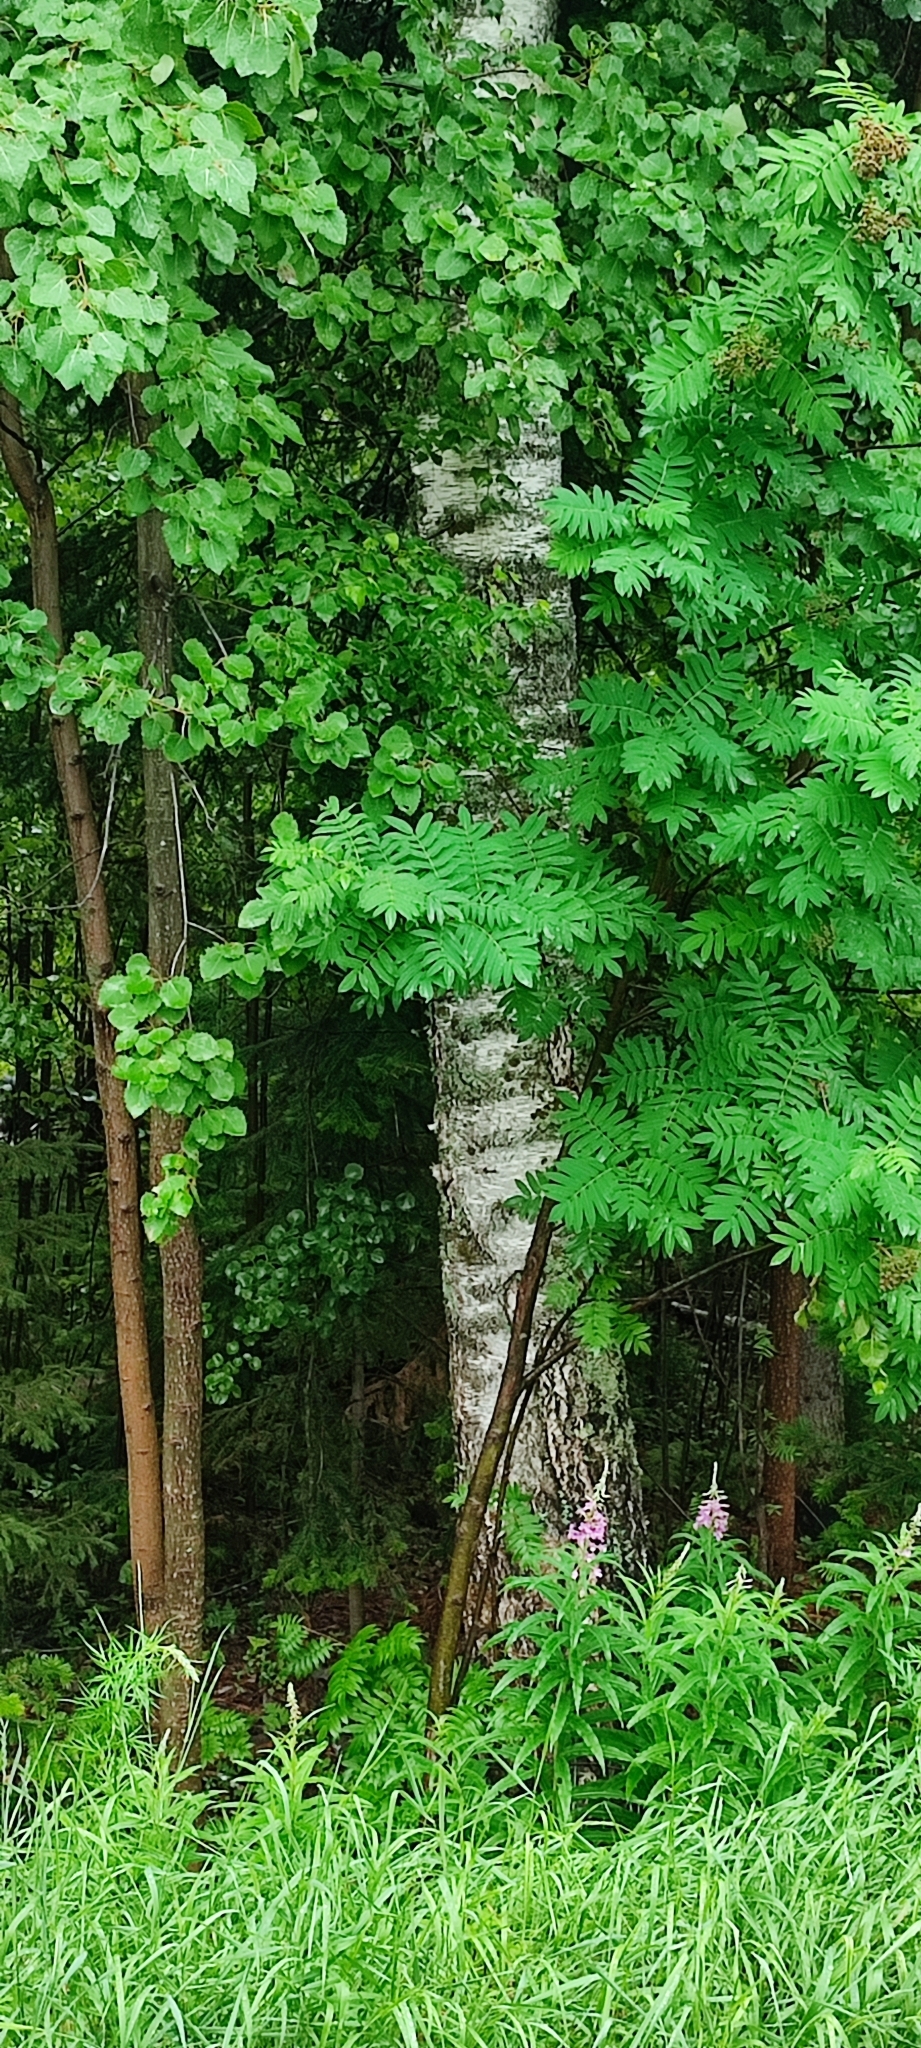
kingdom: Plantae
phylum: Tracheophyta
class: Magnoliopsida
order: Fagales
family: Betulaceae
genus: Betula
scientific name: Betula pubescens
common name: Downy birch
